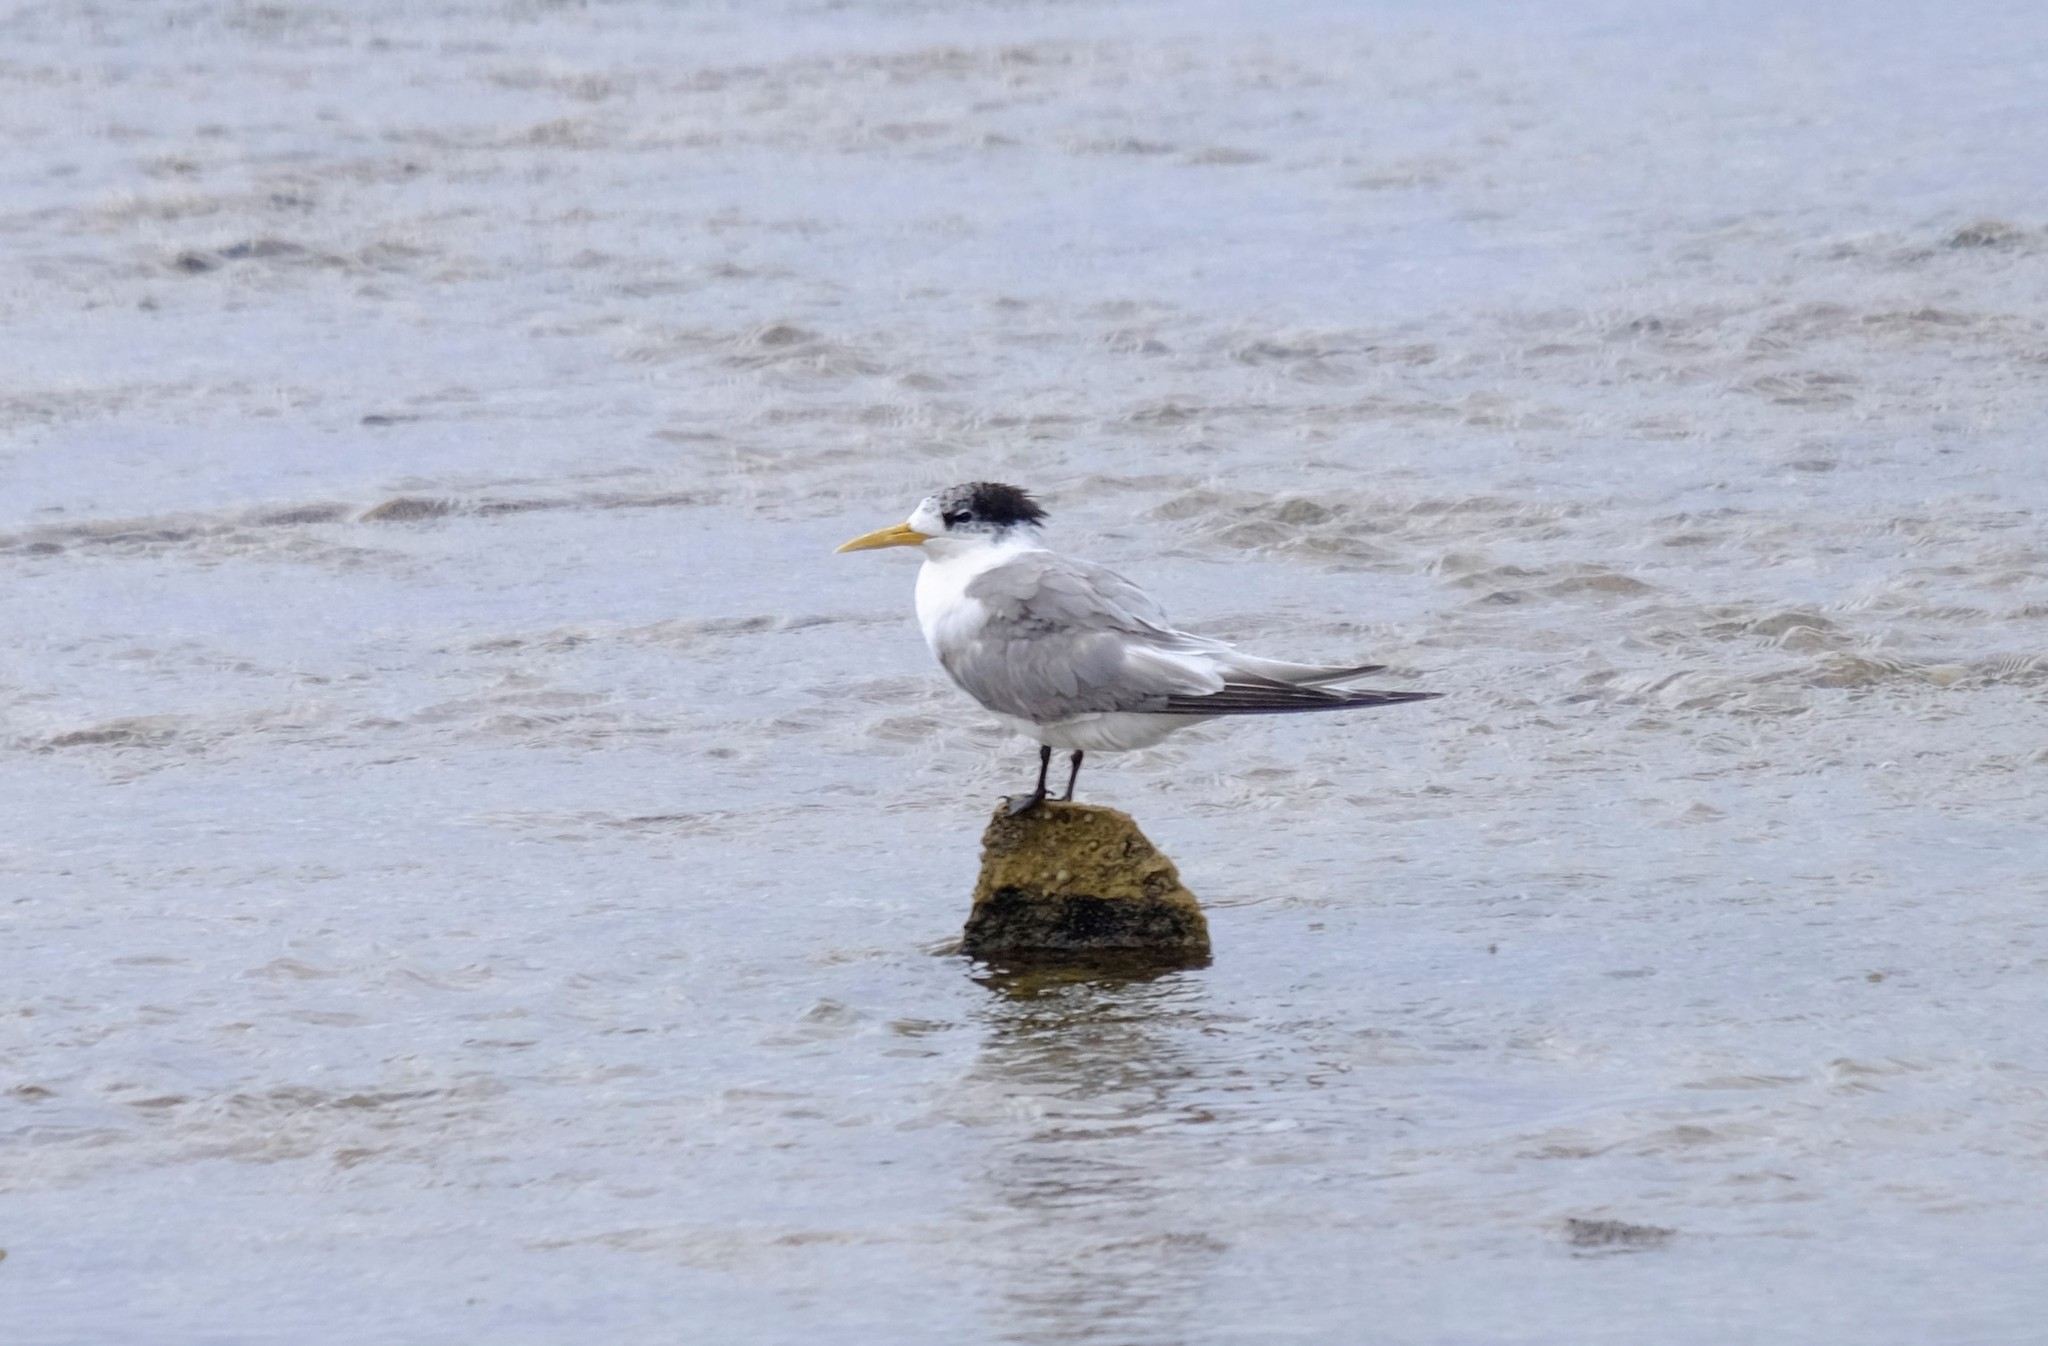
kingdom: Animalia
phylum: Chordata
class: Aves
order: Charadriiformes
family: Laridae
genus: Thalasseus
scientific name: Thalasseus bergii
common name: Greater crested tern
